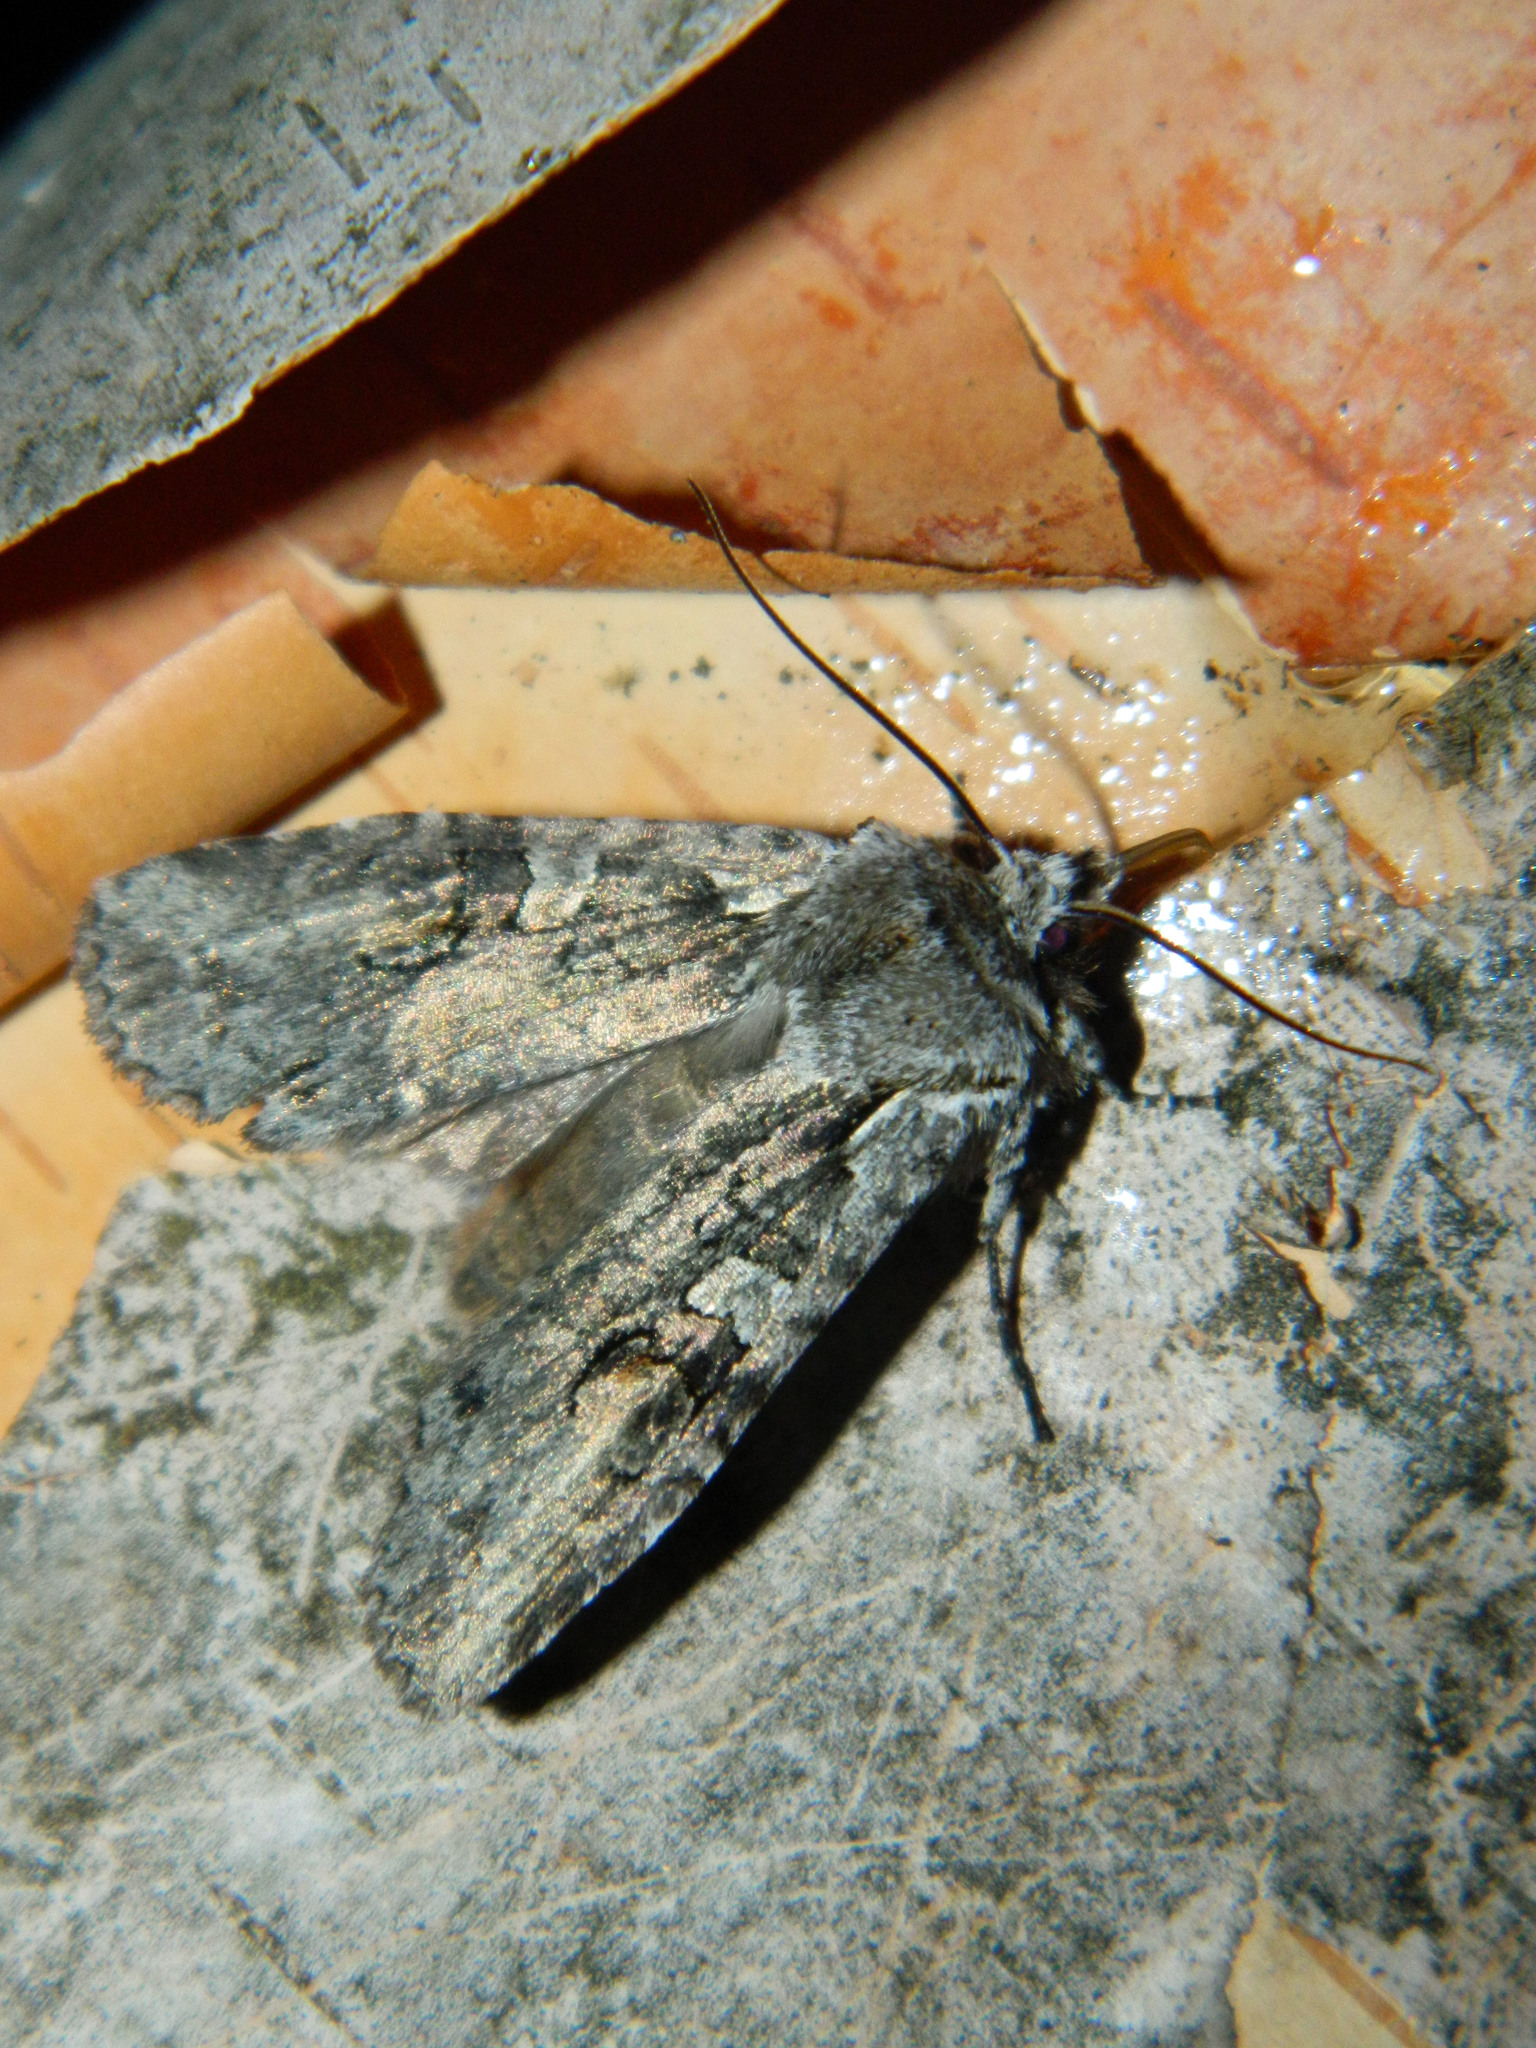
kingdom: Animalia
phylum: Arthropoda
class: Insecta
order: Lepidoptera
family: Noctuidae
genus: Lithophane
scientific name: Lithophane baileyi
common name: Bailey's pinion moth
